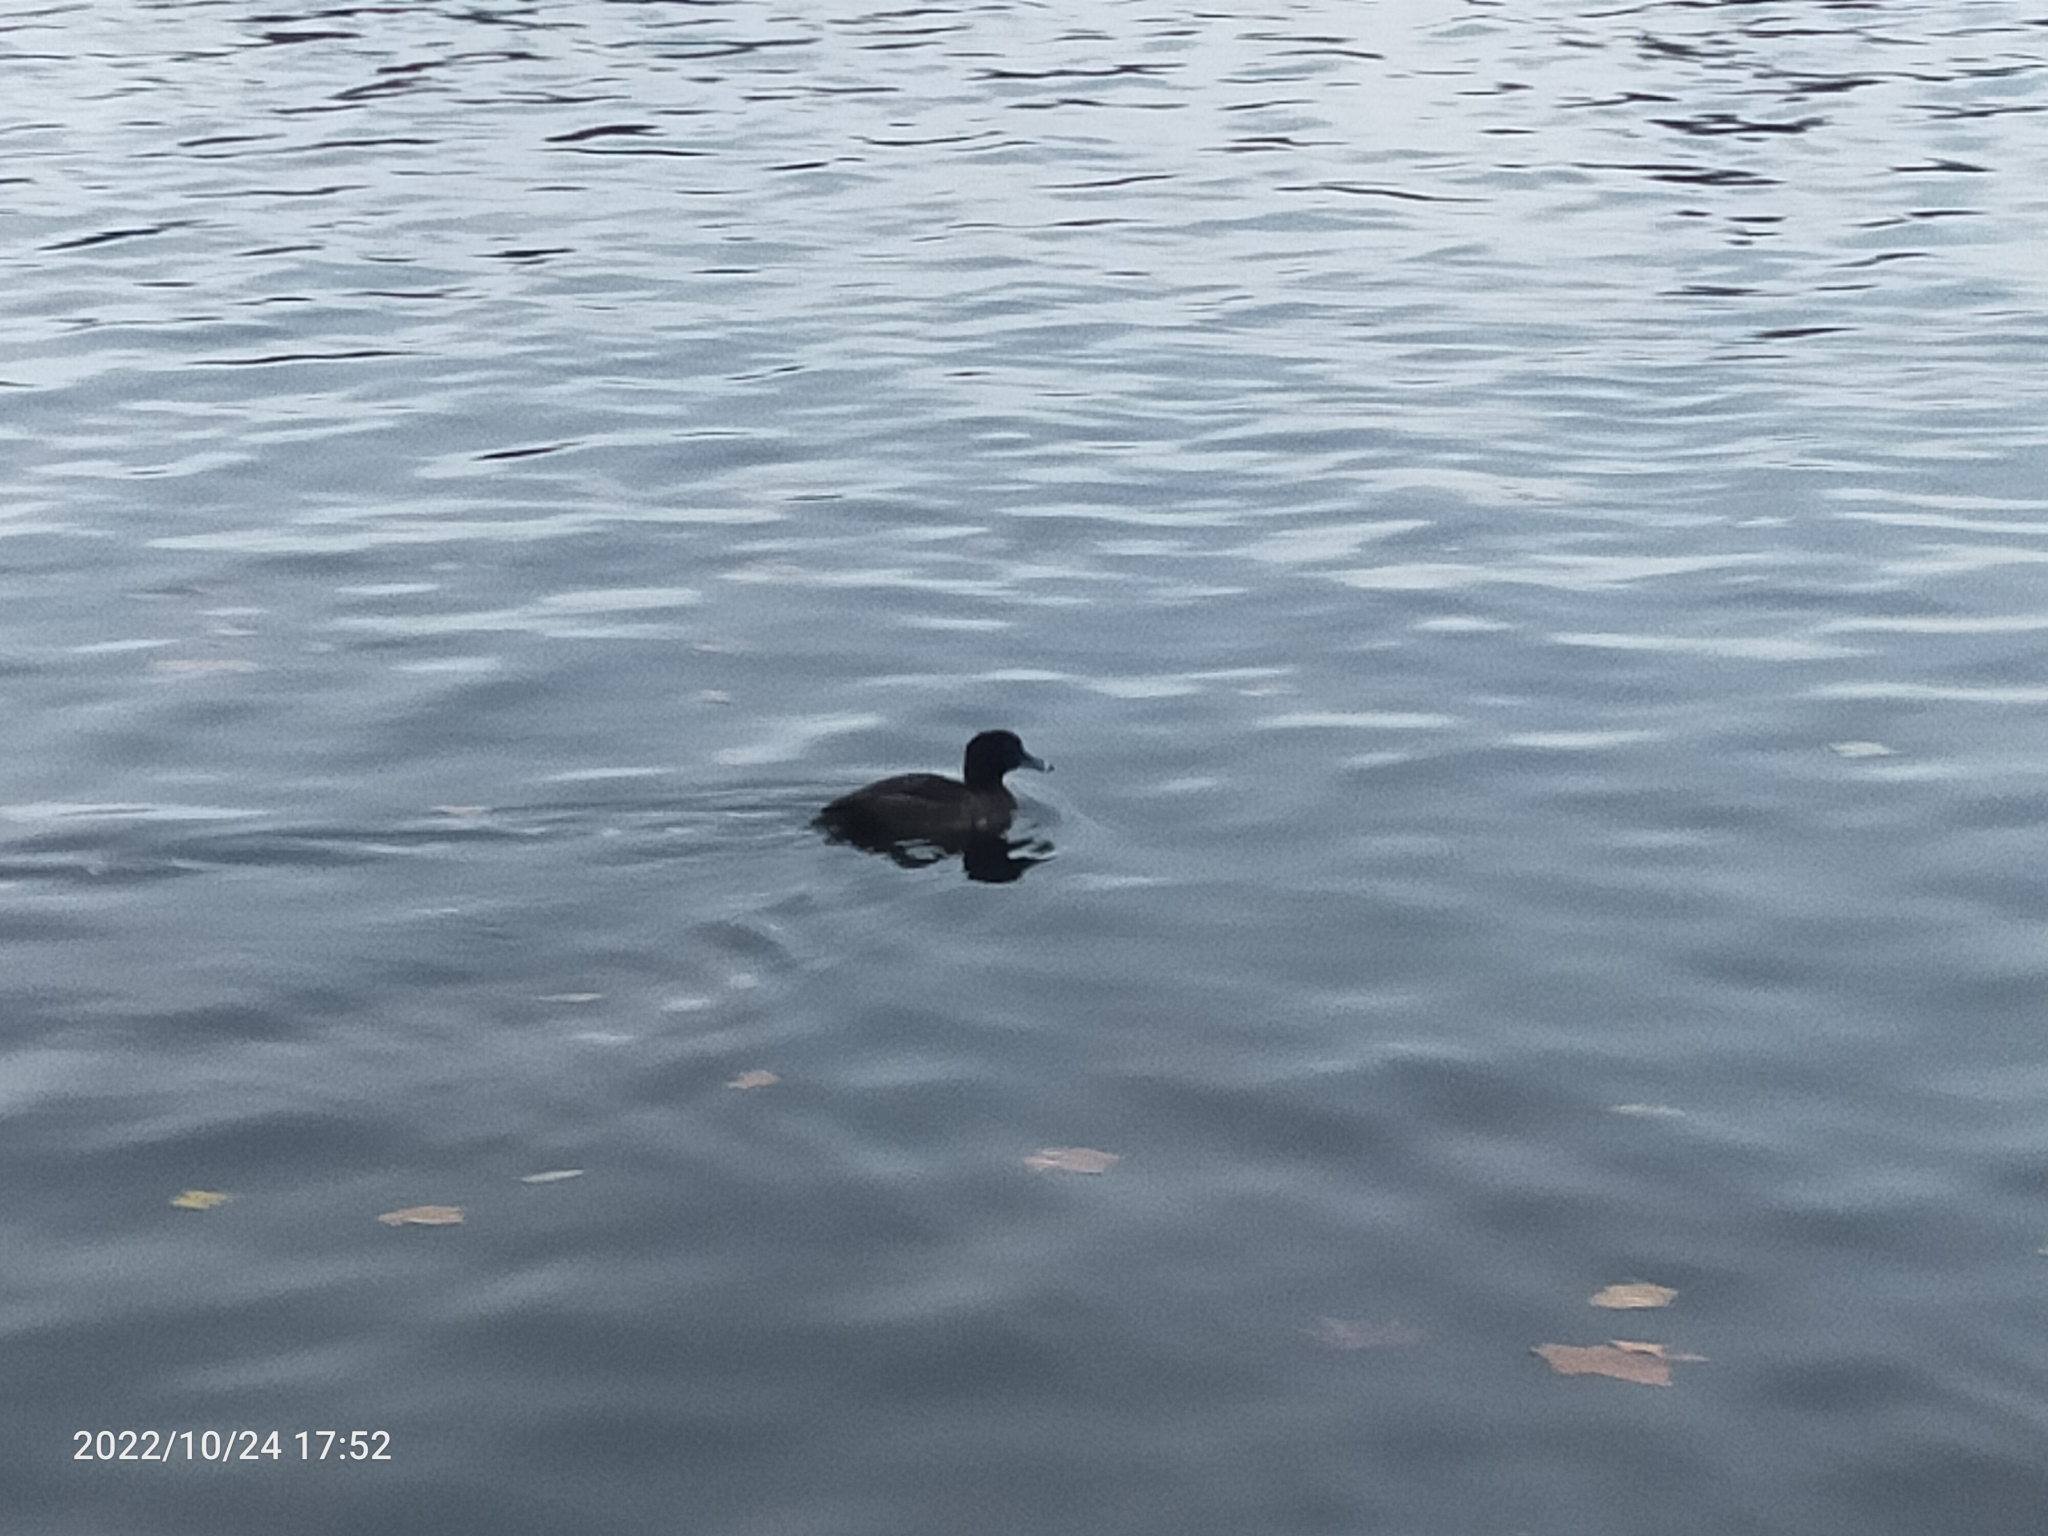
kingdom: Animalia
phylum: Chordata
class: Aves
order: Anseriformes
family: Anatidae
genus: Aythya
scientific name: Aythya fuligula
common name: Tufted duck
